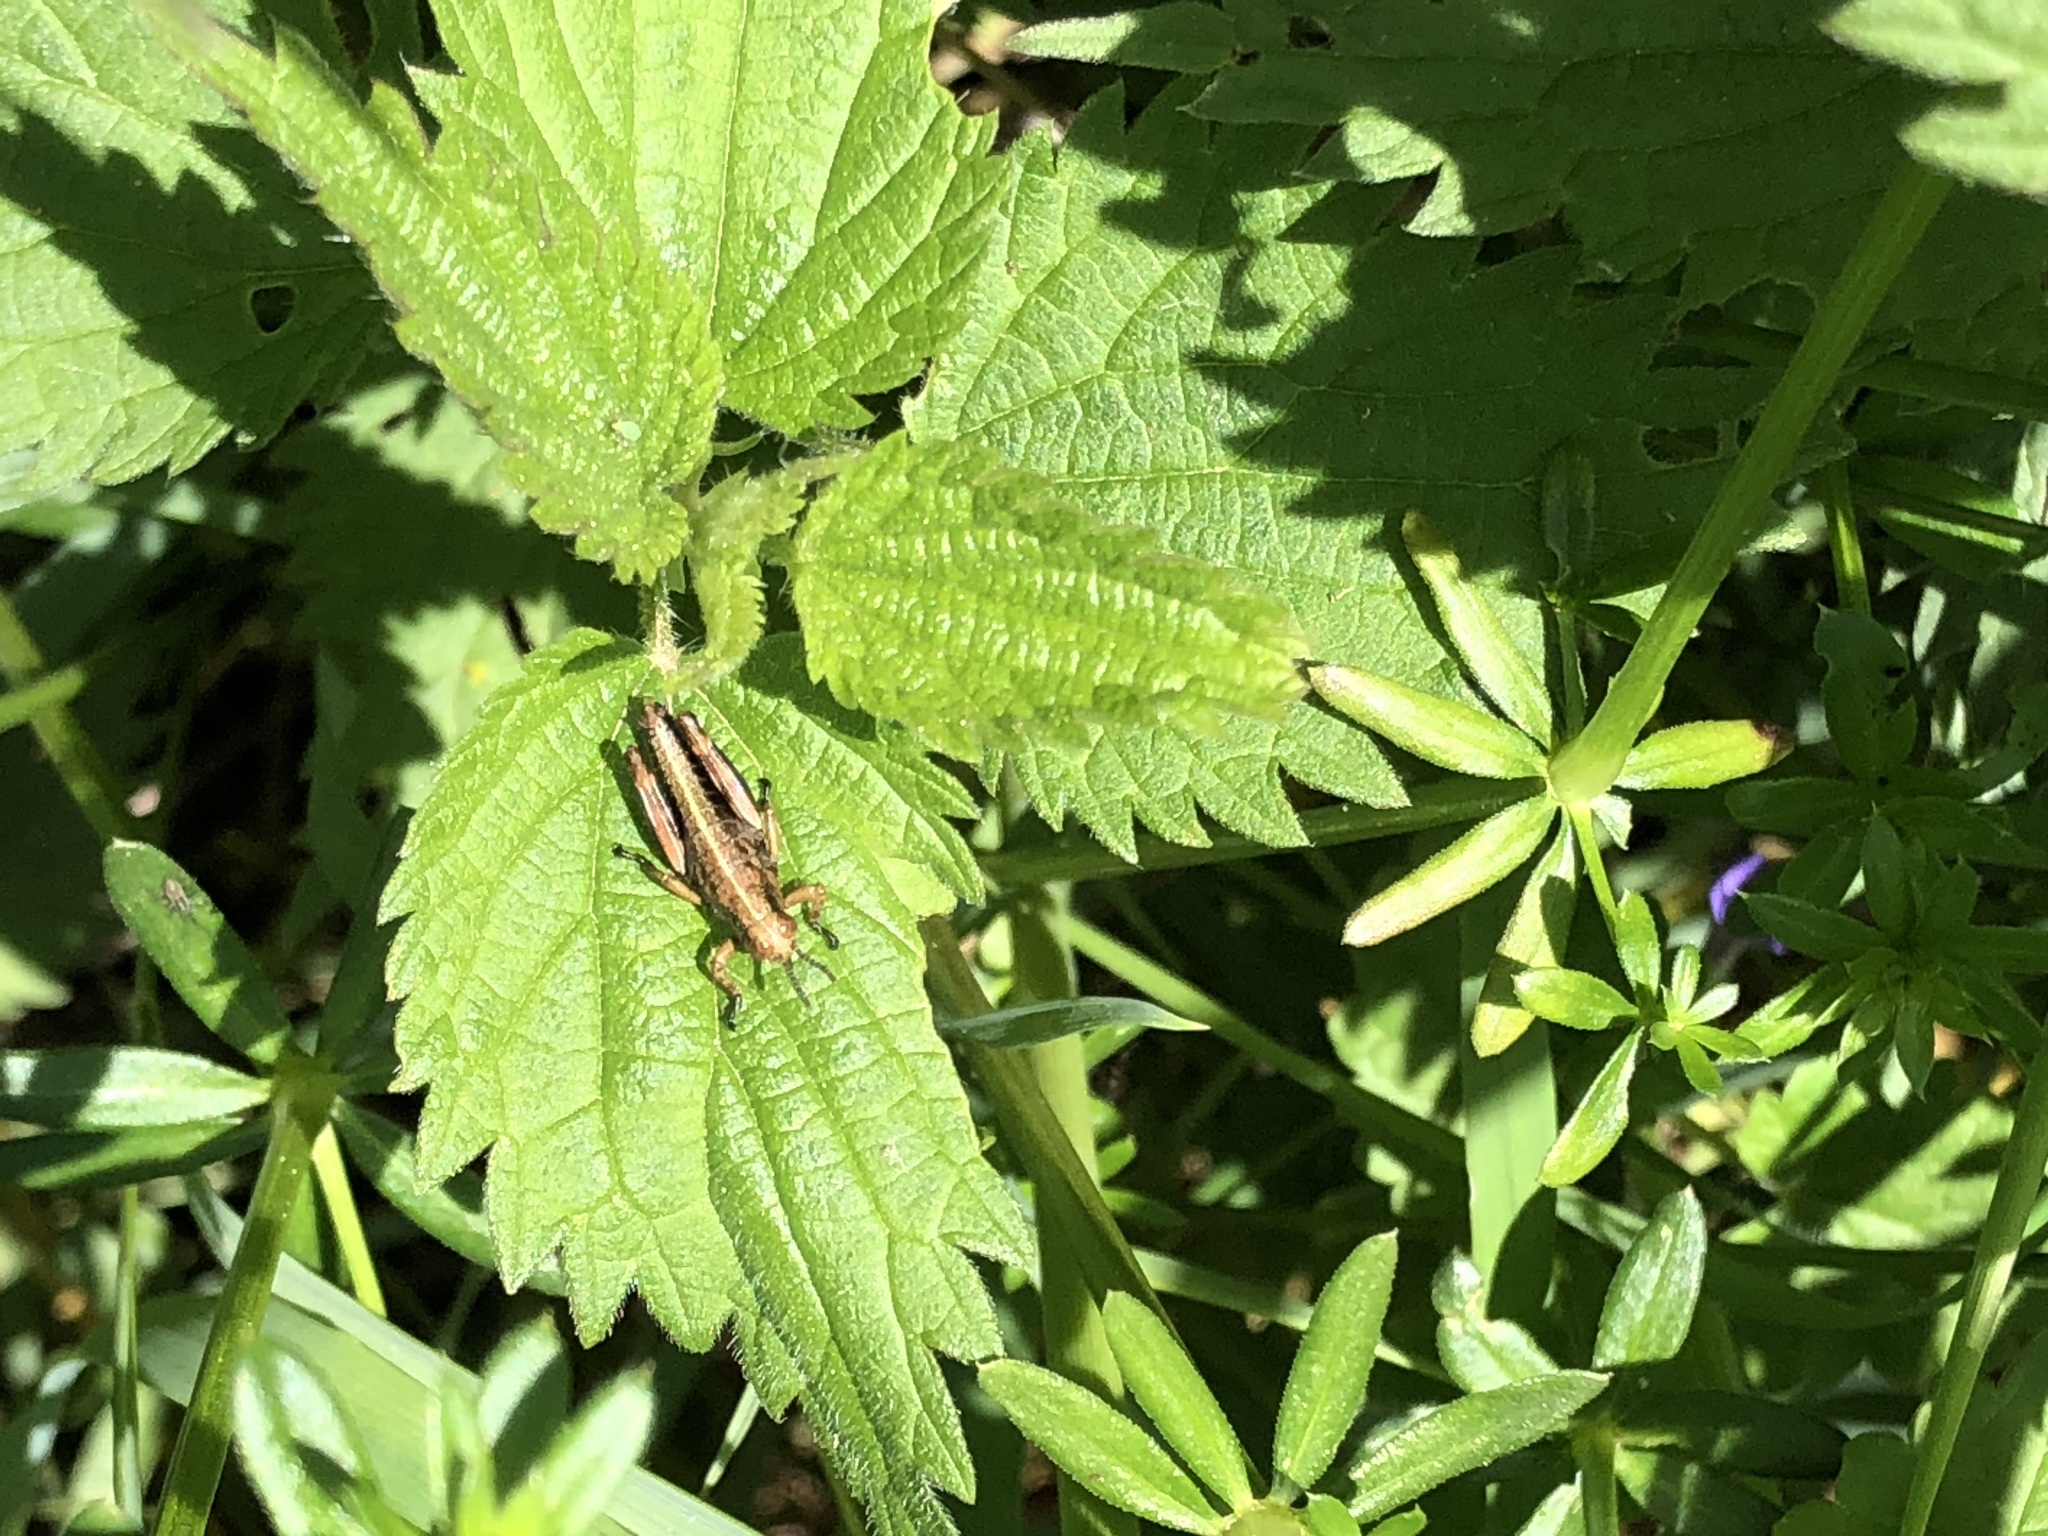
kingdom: Animalia
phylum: Arthropoda
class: Insecta
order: Orthoptera
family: Acrididae
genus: Miramella
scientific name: Miramella alpina
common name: Green mountain grasshopper
